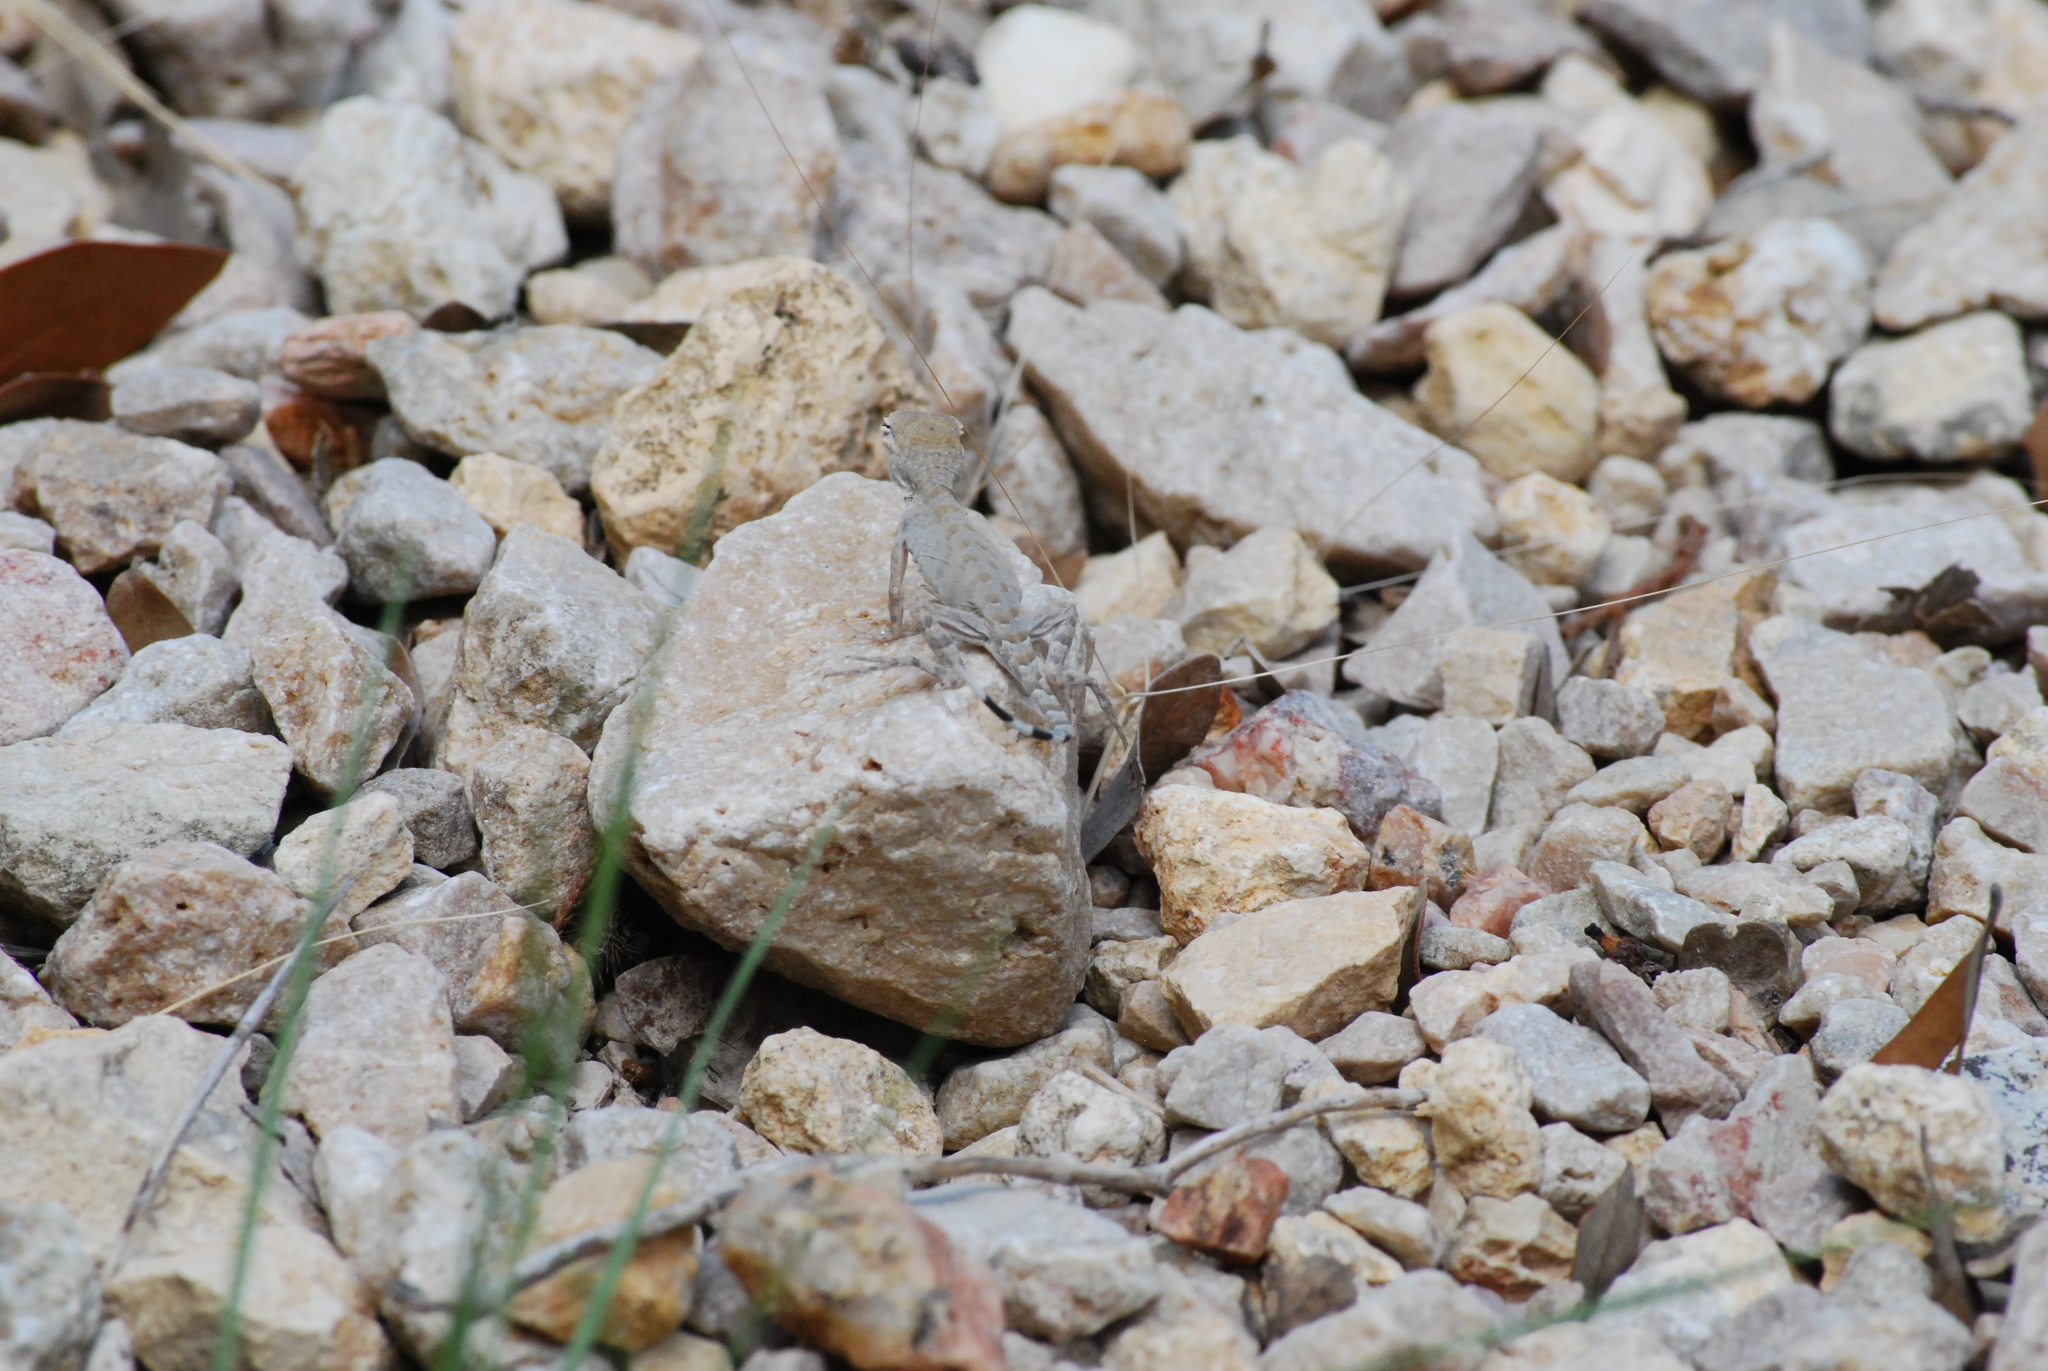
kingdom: Animalia
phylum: Chordata
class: Squamata
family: Phrynosomatidae
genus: Cophosaurus
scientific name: Cophosaurus texanus
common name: Greater earless lizard
